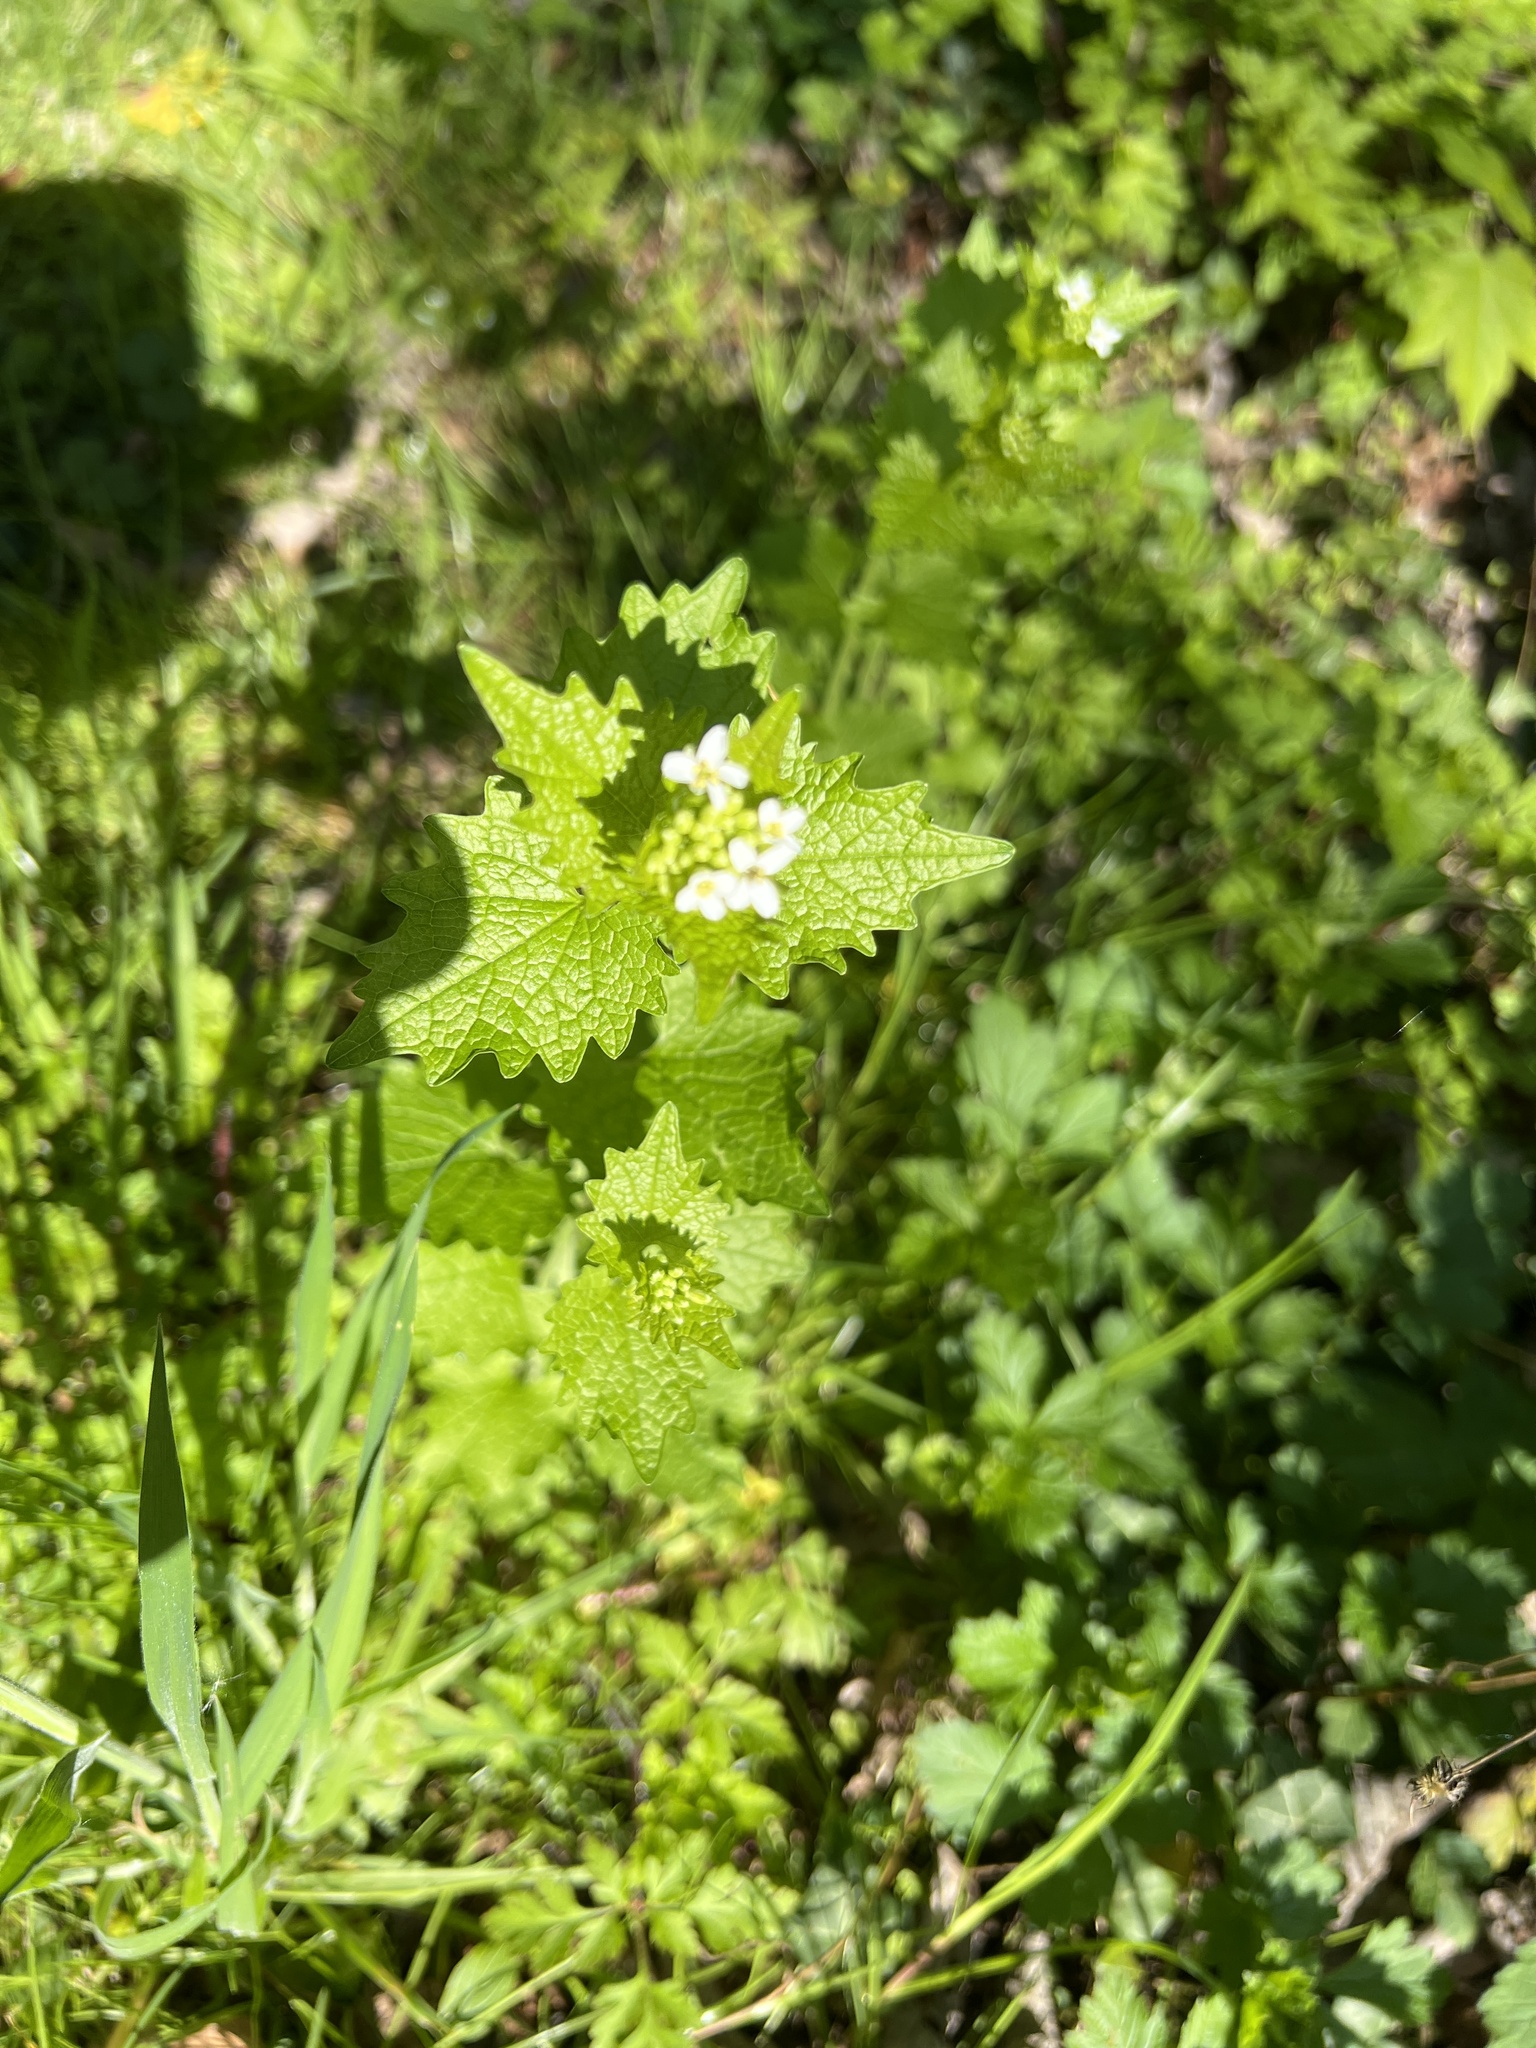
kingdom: Plantae
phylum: Tracheophyta
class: Magnoliopsida
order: Brassicales
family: Brassicaceae
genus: Alliaria
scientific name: Alliaria petiolata
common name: Garlic mustard
